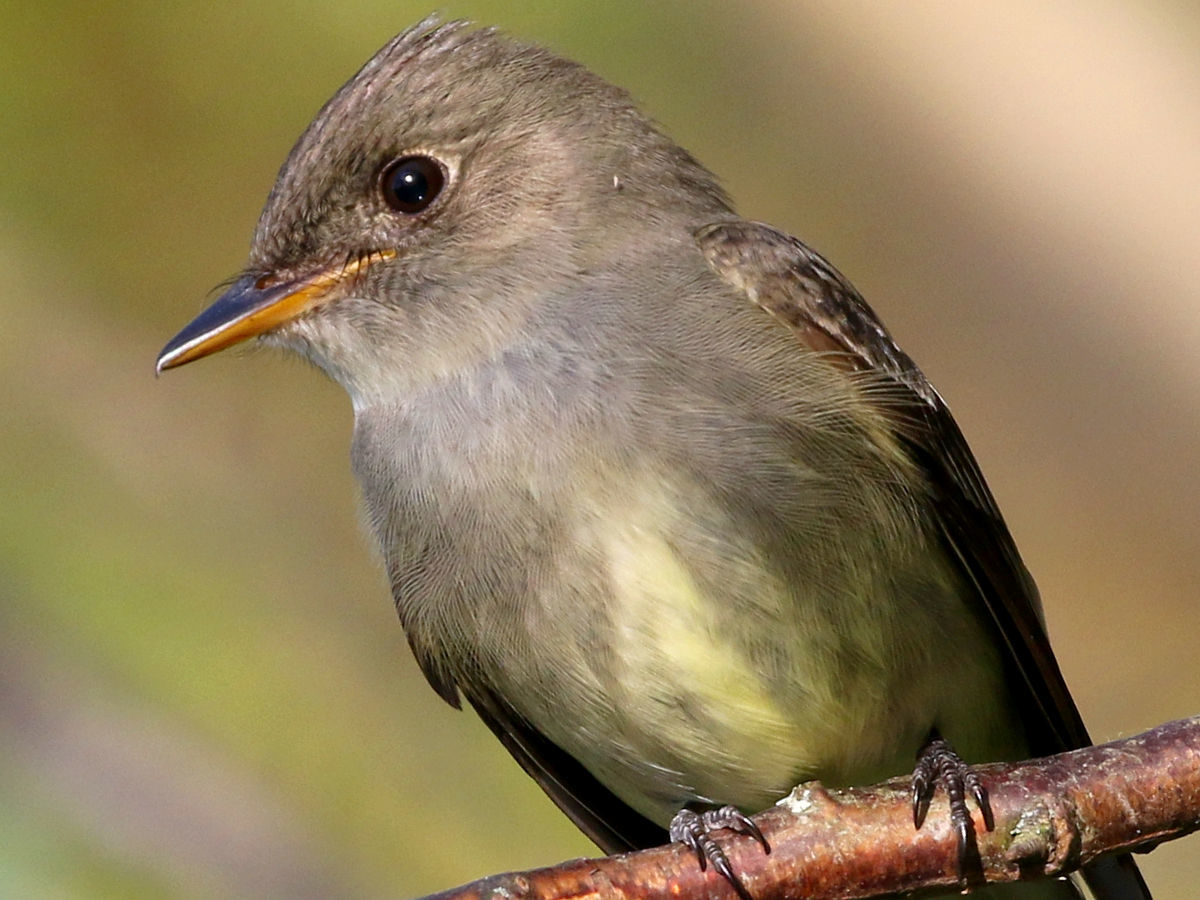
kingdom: Animalia
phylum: Chordata
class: Aves
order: Passeriformes
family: Tyrannidae
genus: Contopus
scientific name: Contopus virens
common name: Eastern wood-pewee
